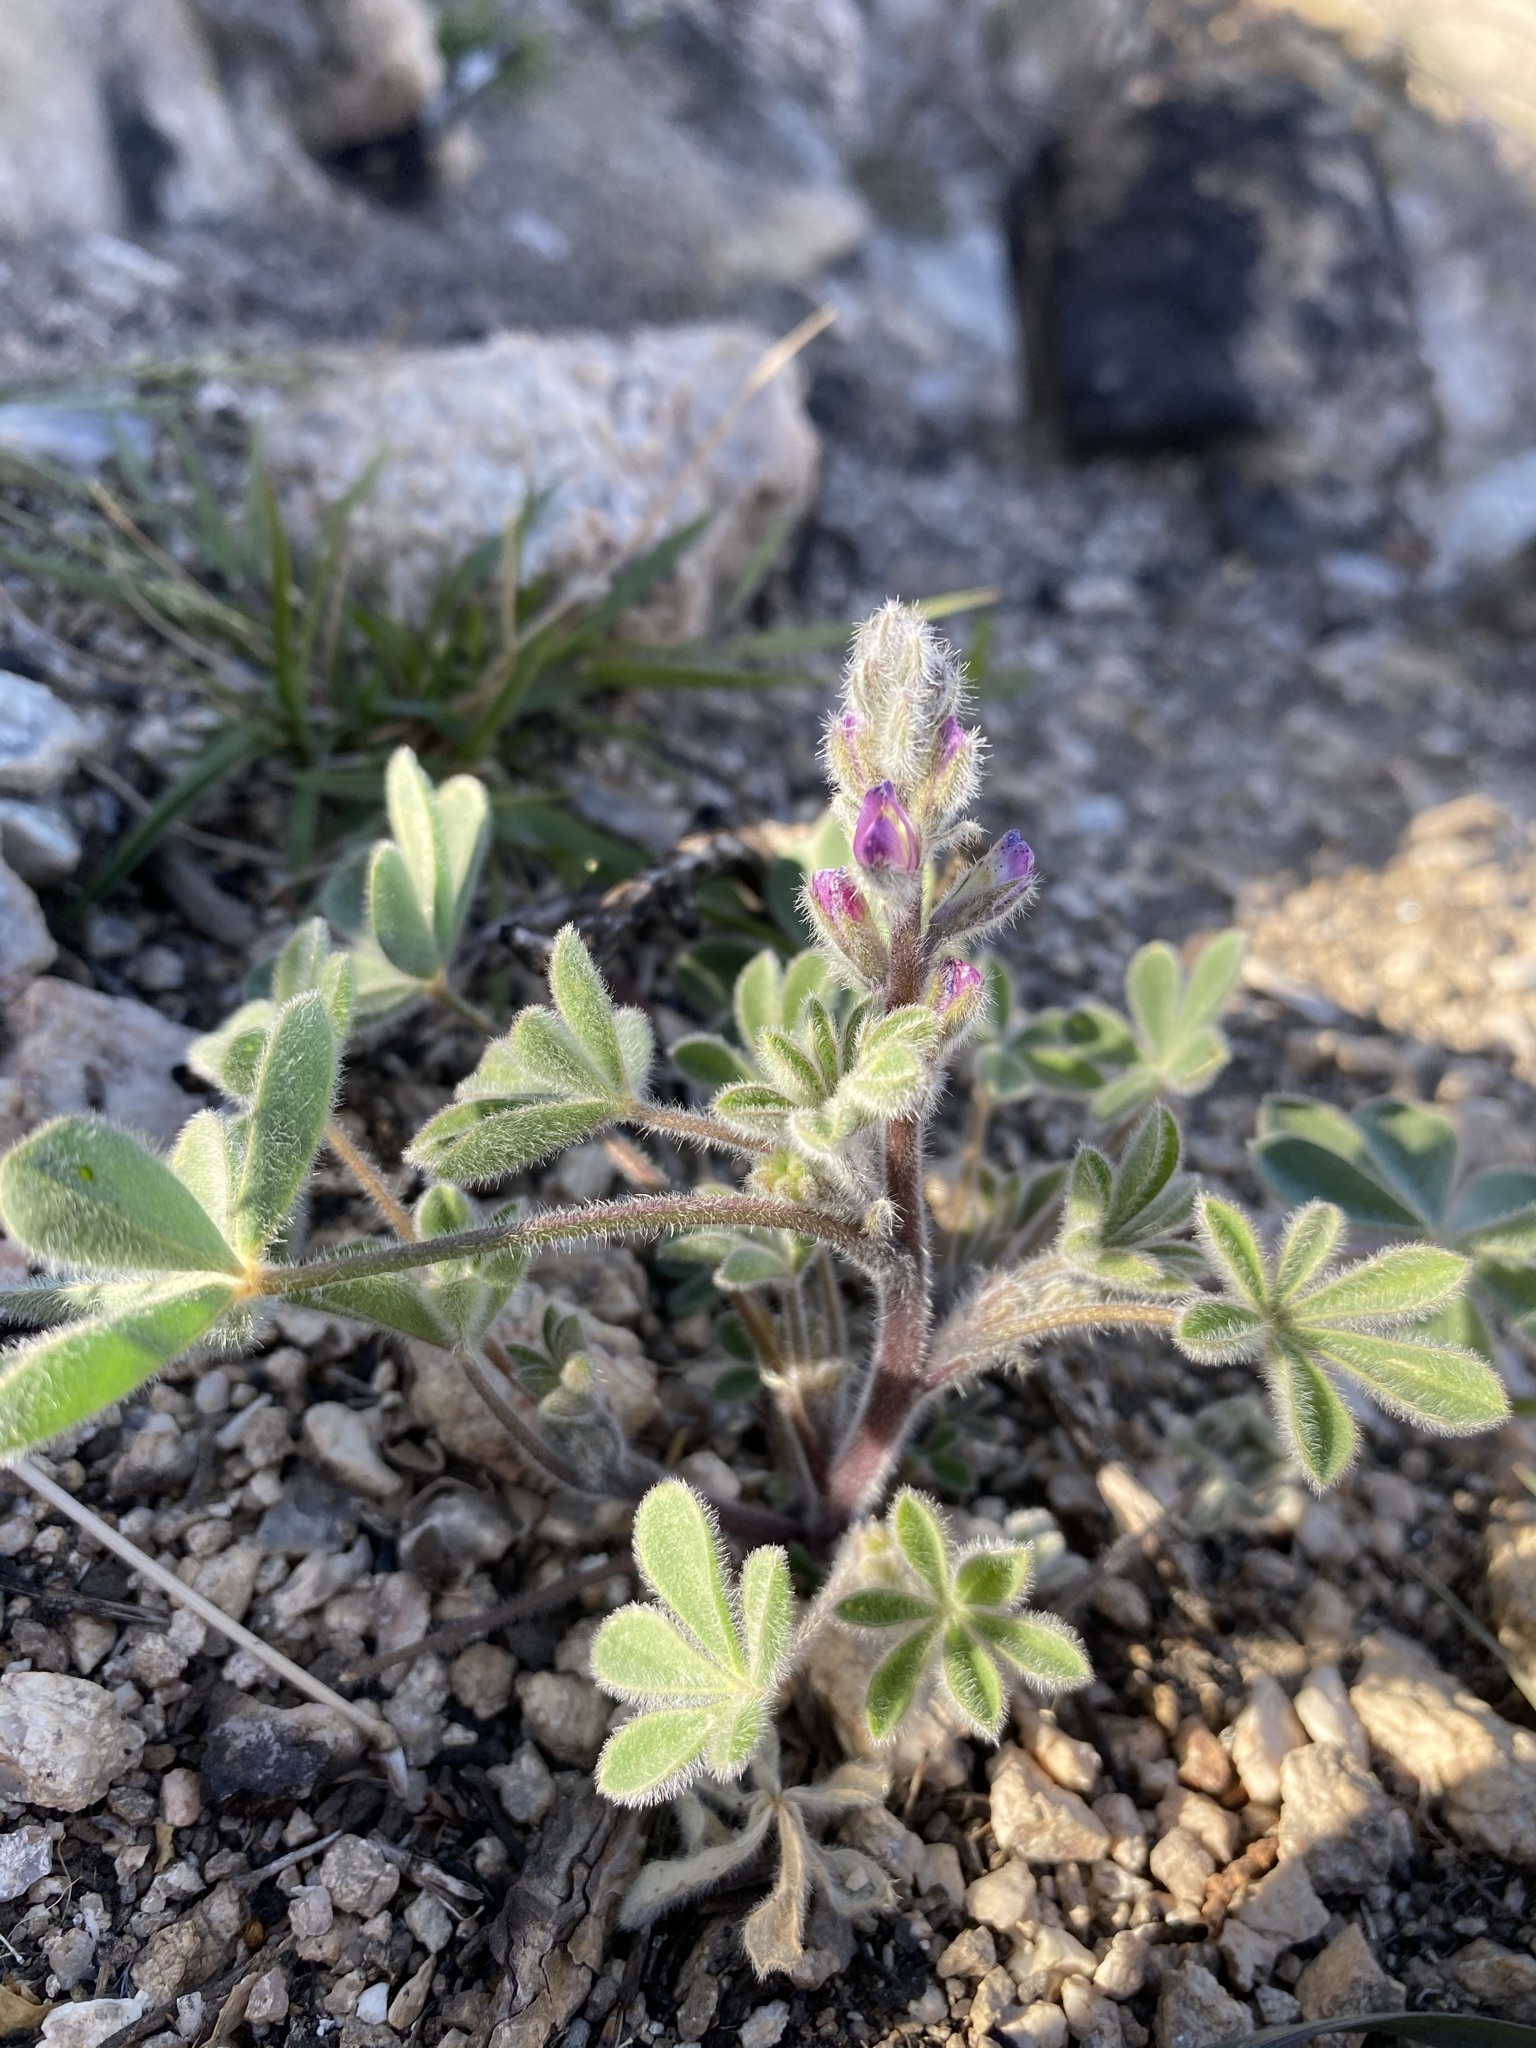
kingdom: Plantae
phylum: Tracheophyta
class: Magnoliopsida
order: Fabales
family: Fabaceae
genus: Lupinus
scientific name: Lupinus concinnus
